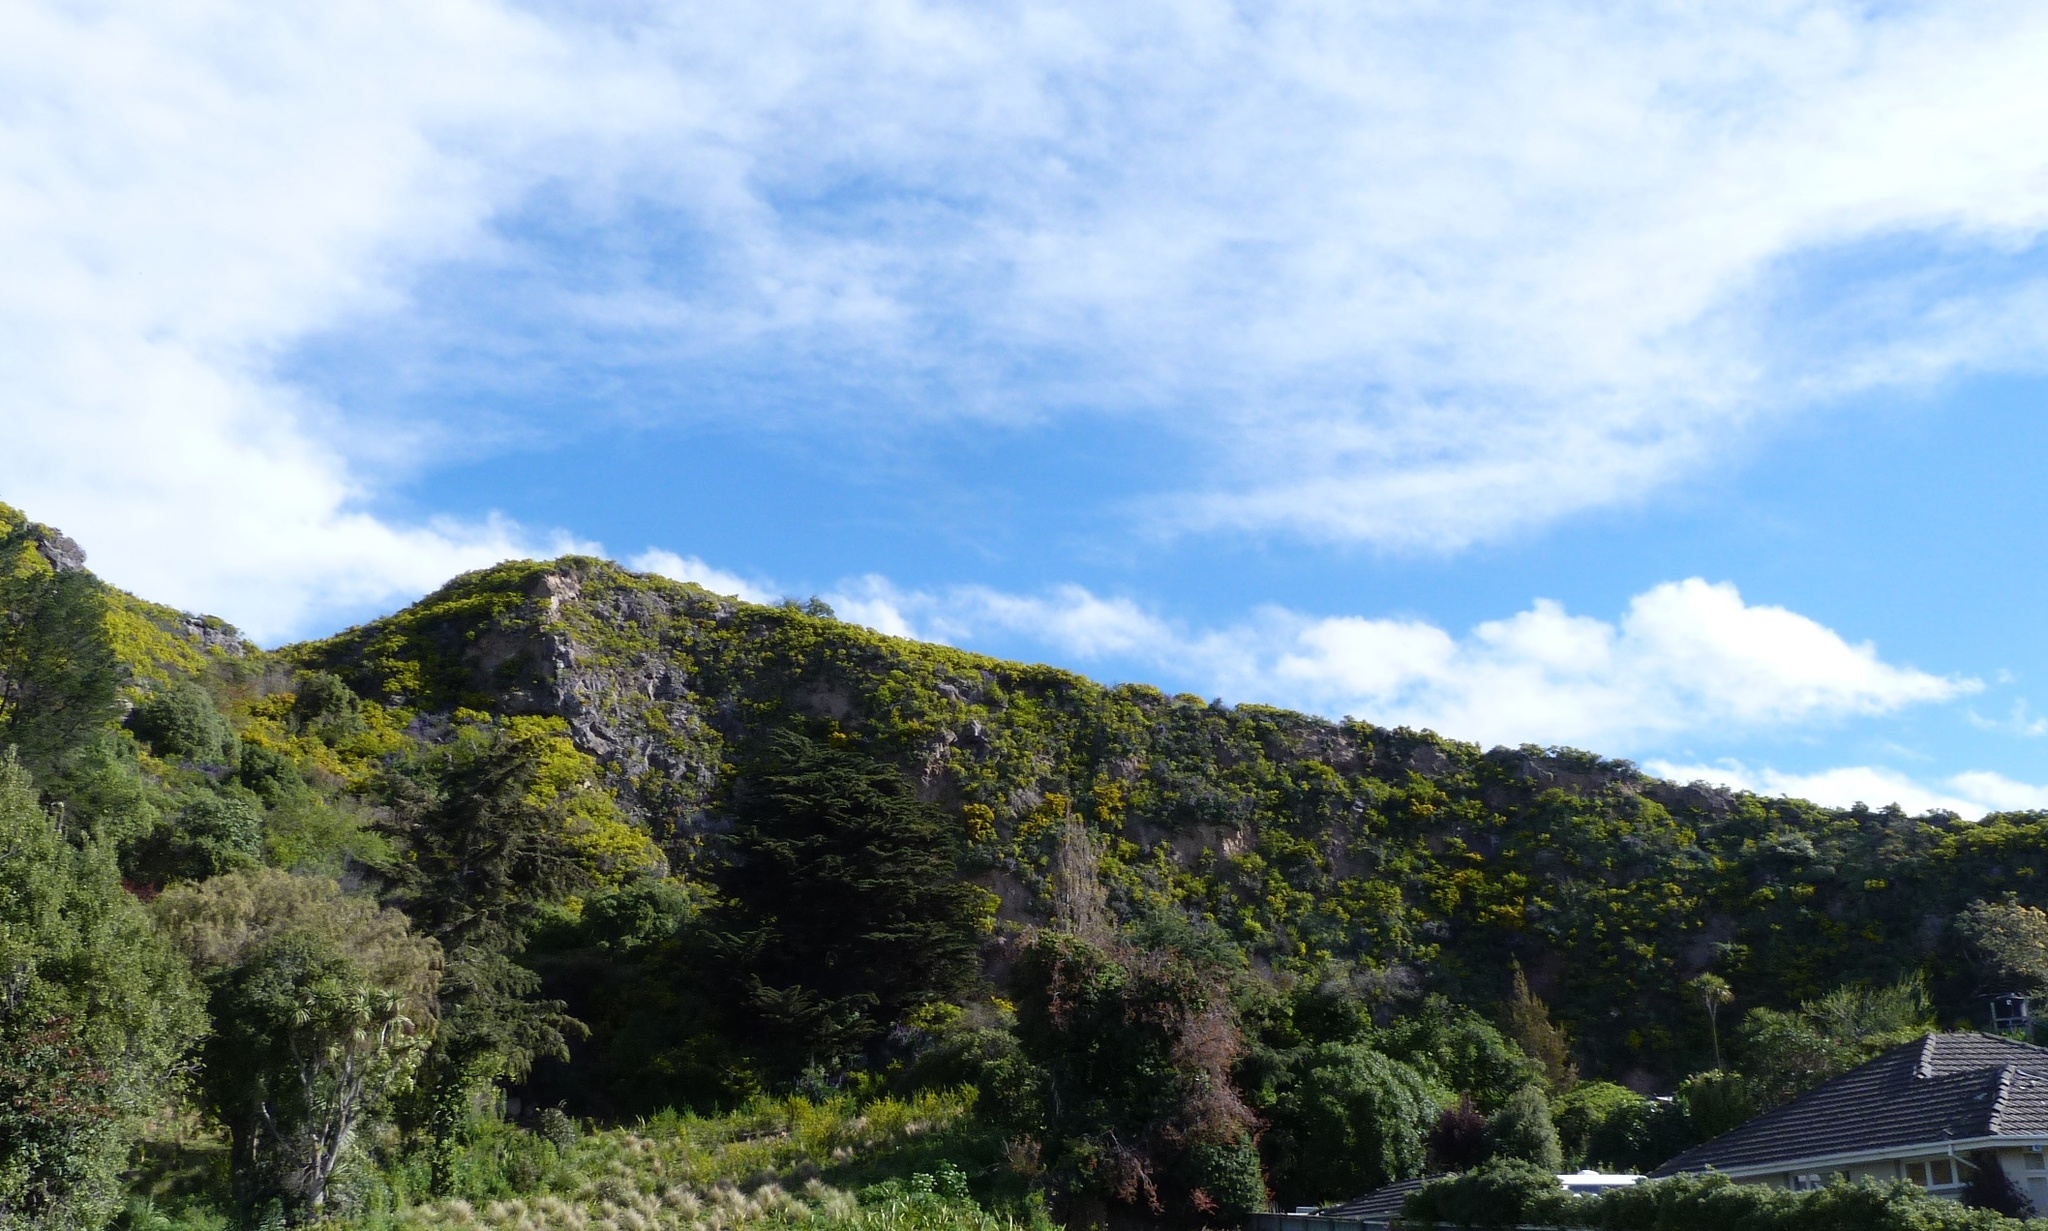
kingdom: Plantae
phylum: Tracheophyta
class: Magnoliopsida
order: Asterales
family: Asteraceae
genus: Osteospermum
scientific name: Osteospermum moniliferum
